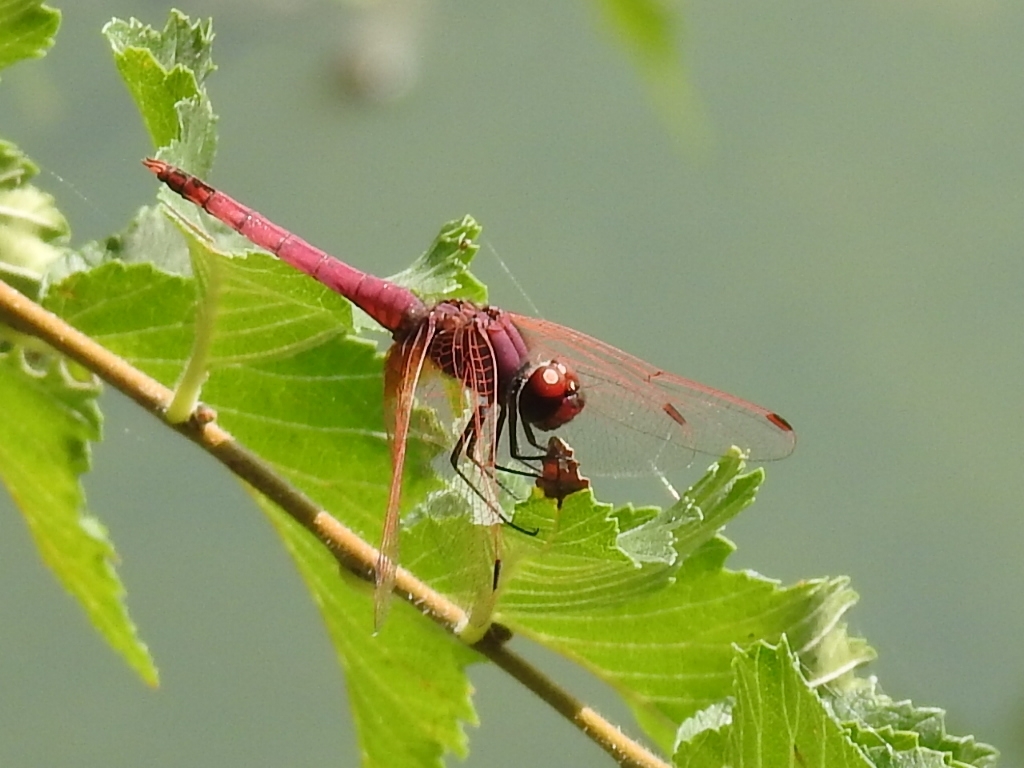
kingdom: Animalia
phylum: Arthropoda
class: Insecta
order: Odonata
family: Libellulidae
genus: Trithemis
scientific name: Trithemis annulata
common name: Violet dropwing
